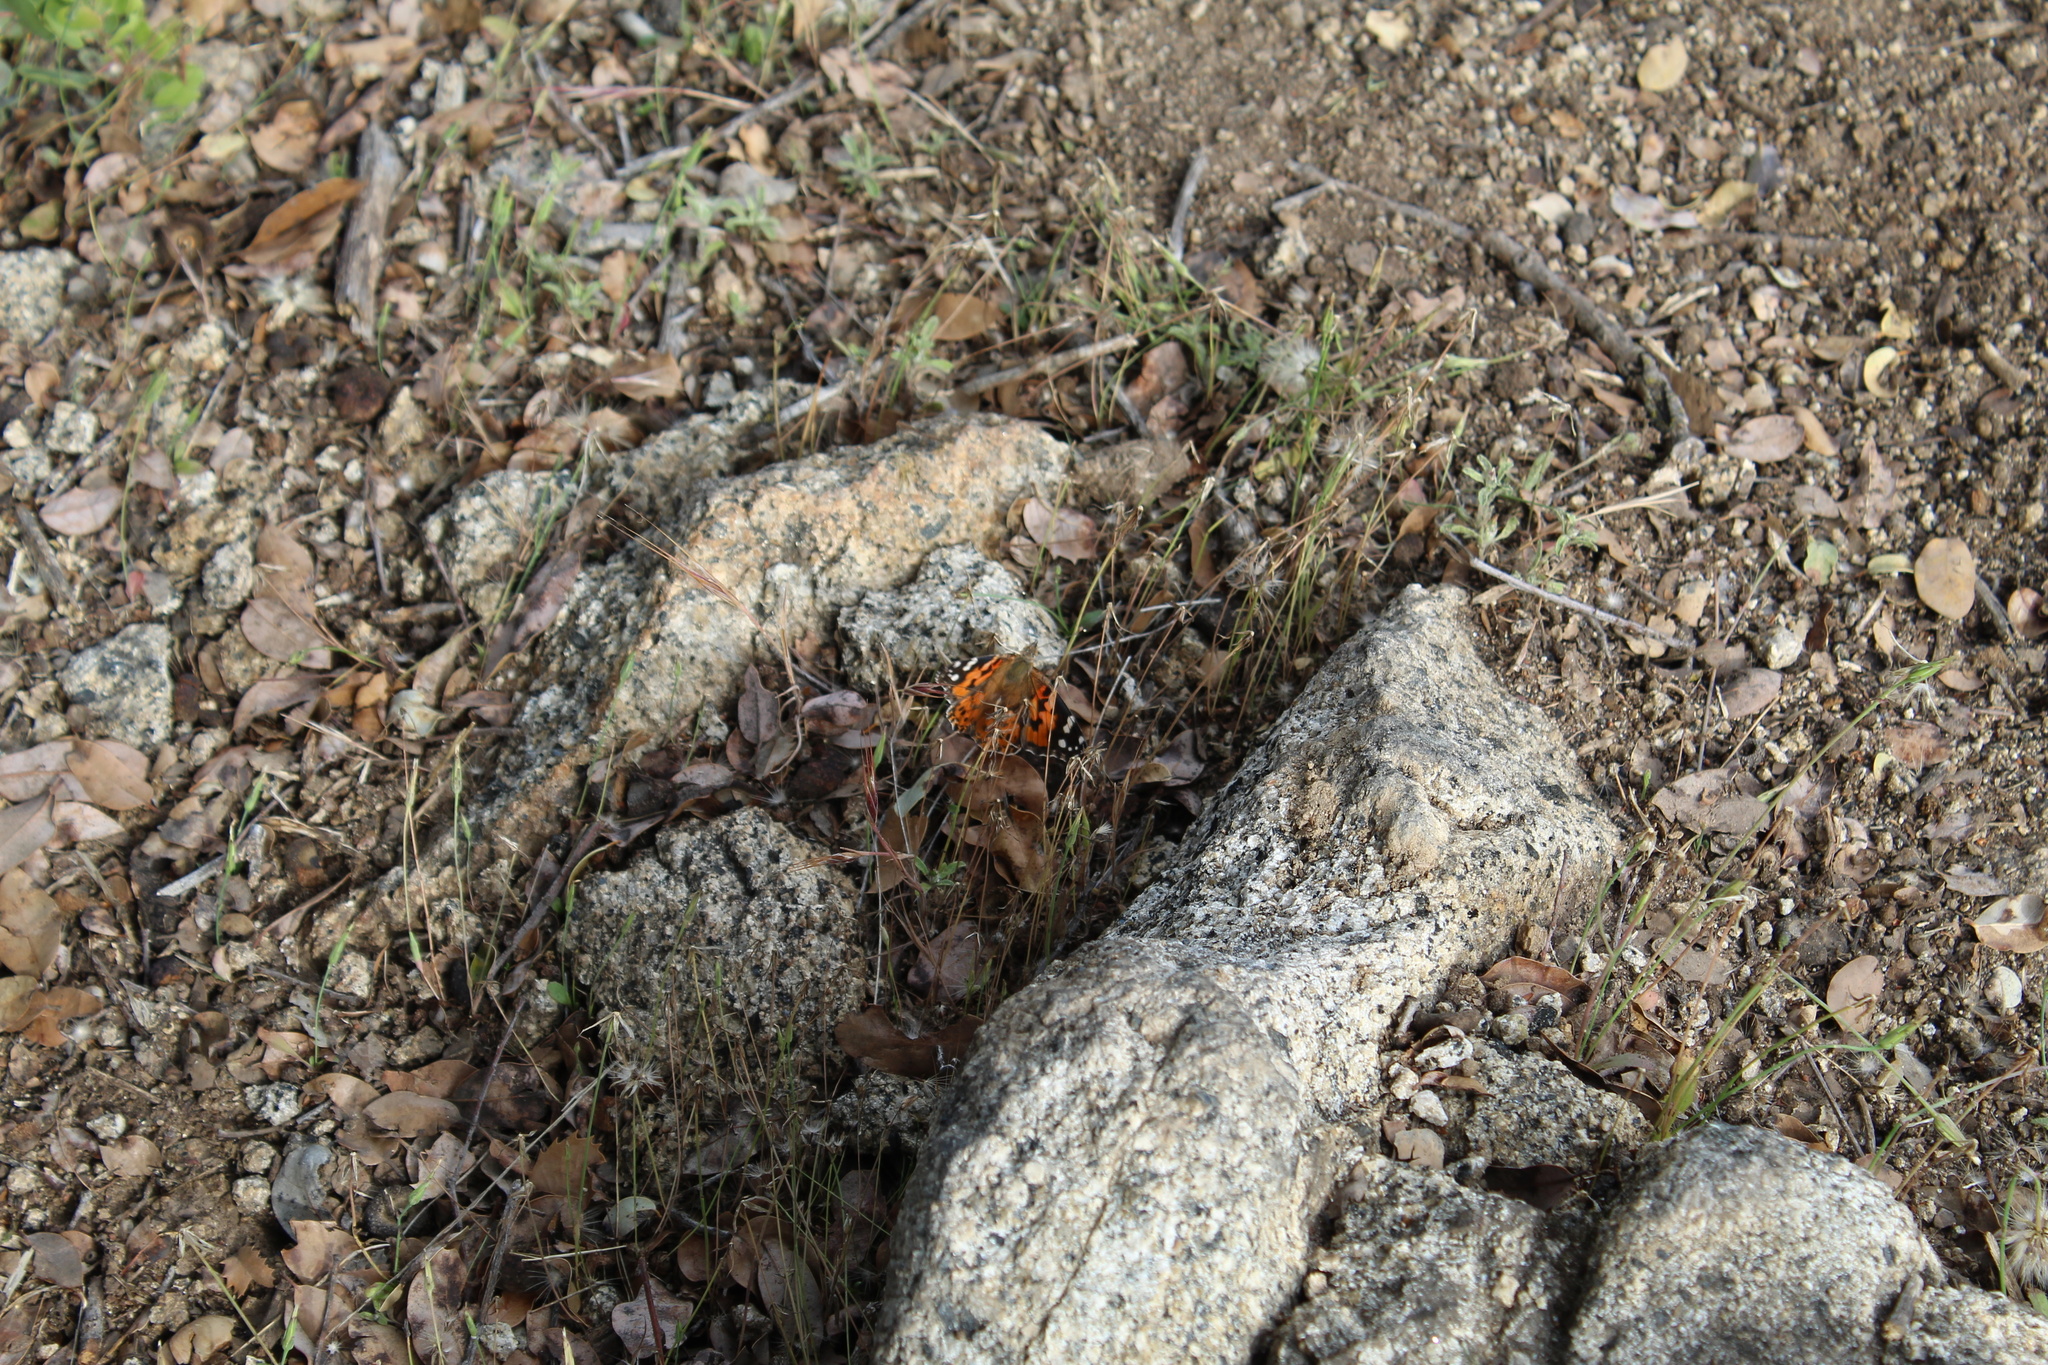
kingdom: Animalia
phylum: Arthropoda
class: Insecta
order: Lepidoptera
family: Nymphalidae
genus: Vanessa
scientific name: Vanessa cardui
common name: Painted lady
